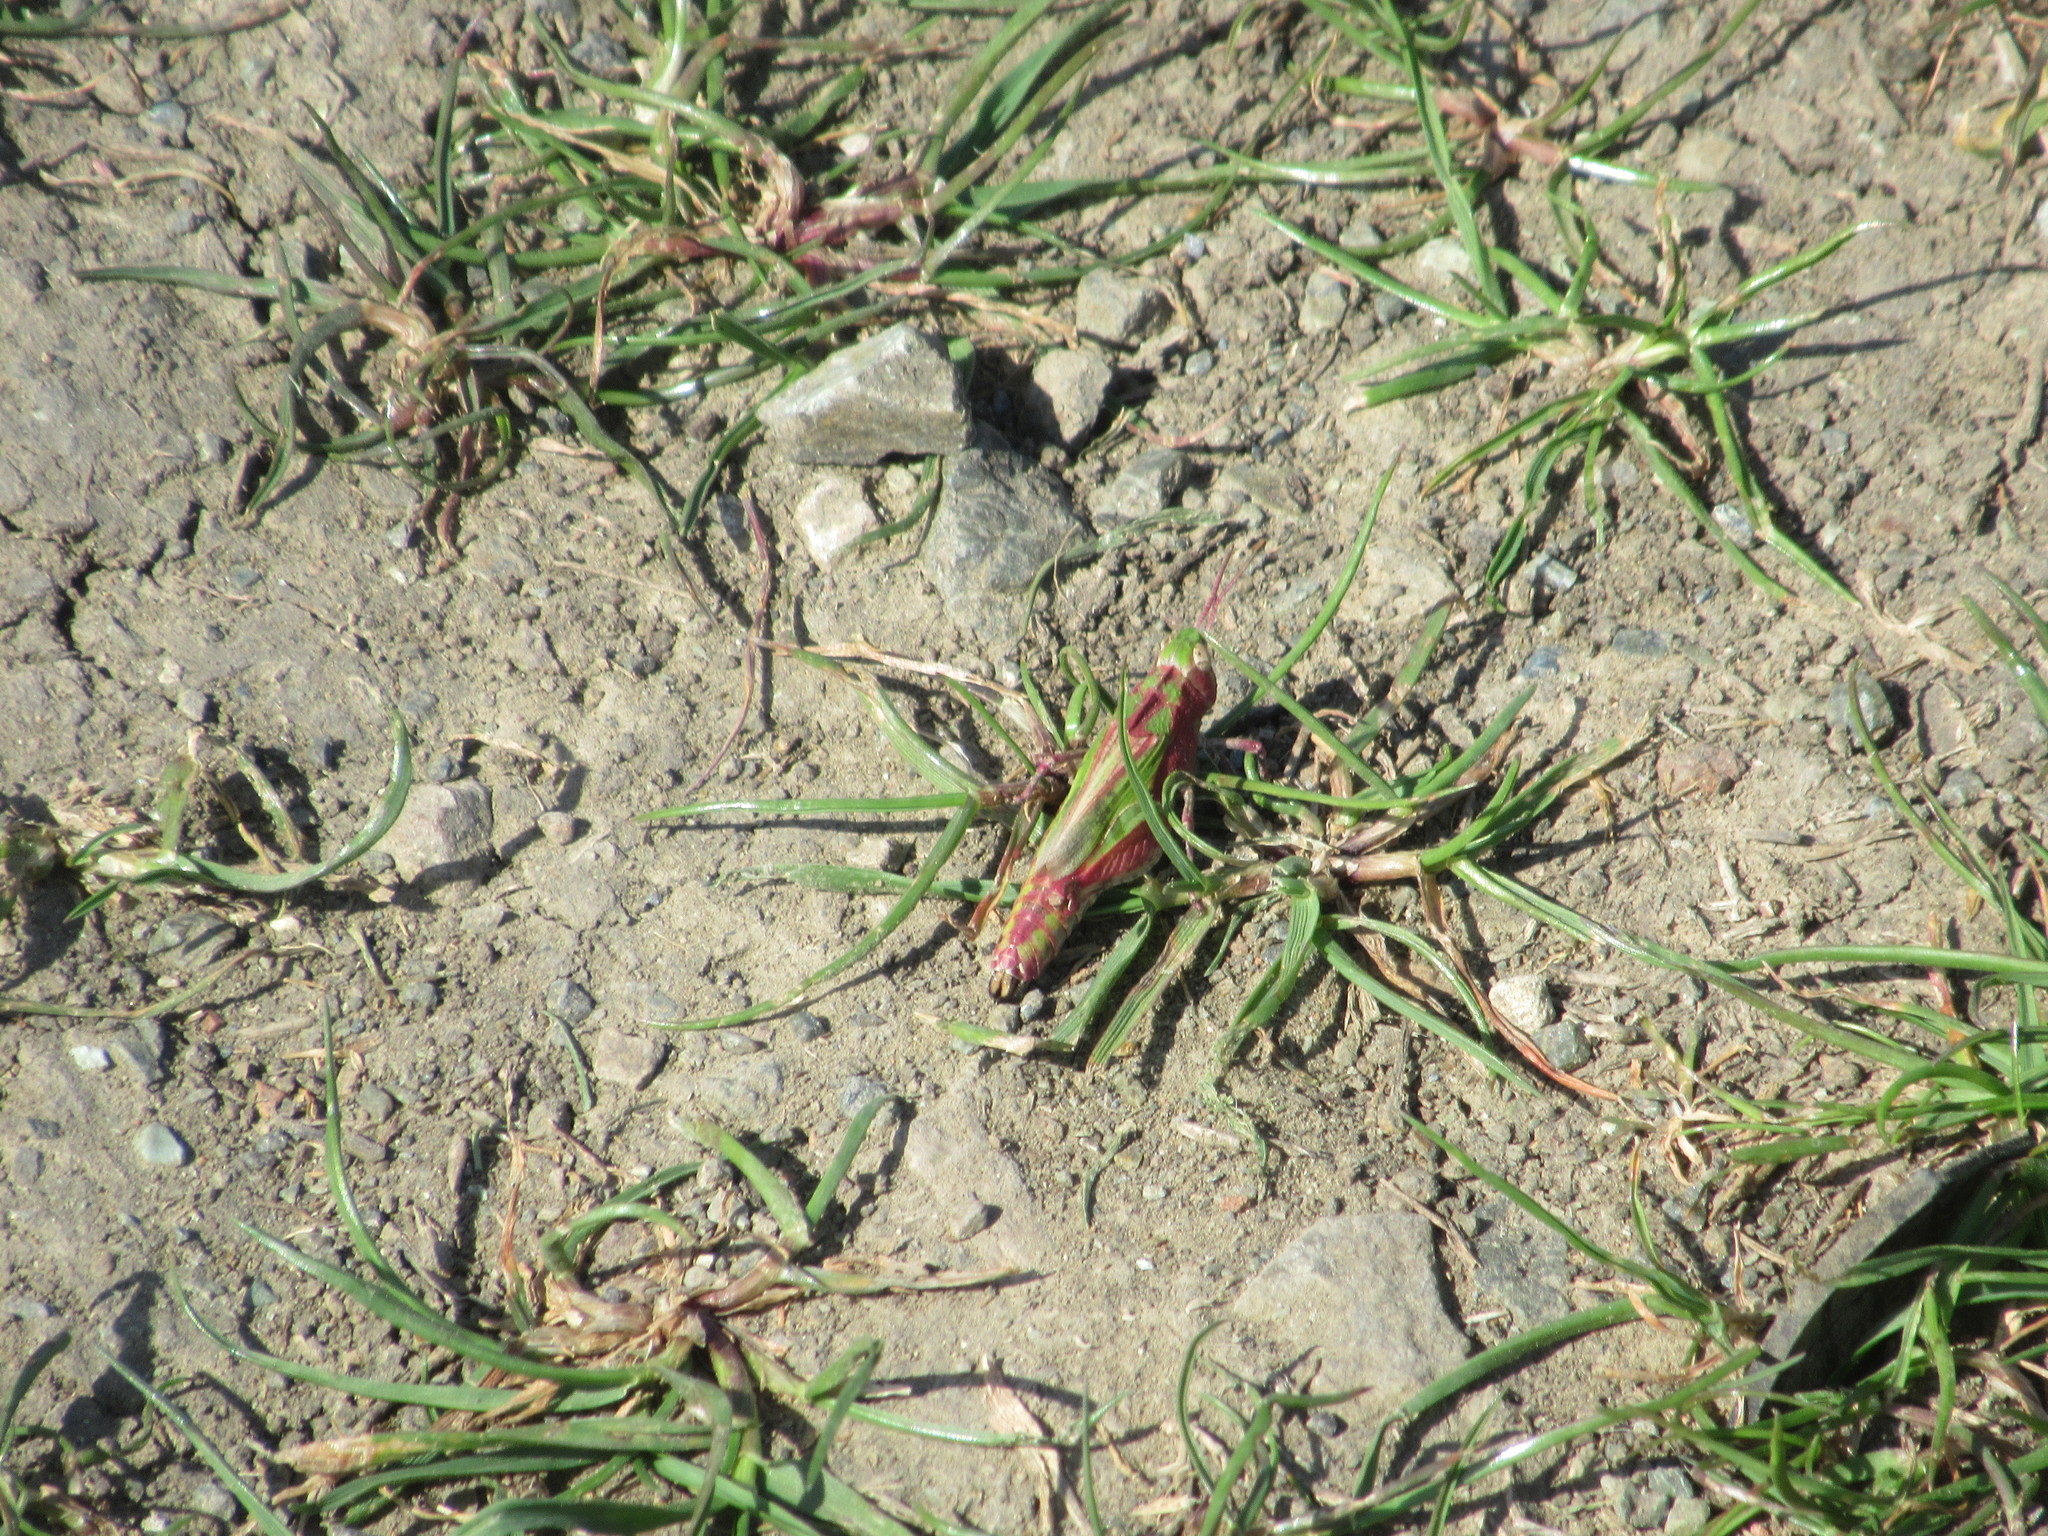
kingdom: Animalia
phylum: Arthropoda
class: Insecta
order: Orthoptera
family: Acrididae
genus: Chimarocephala
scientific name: Chimarocephala pacifica
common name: Painted meadow grasshopper
